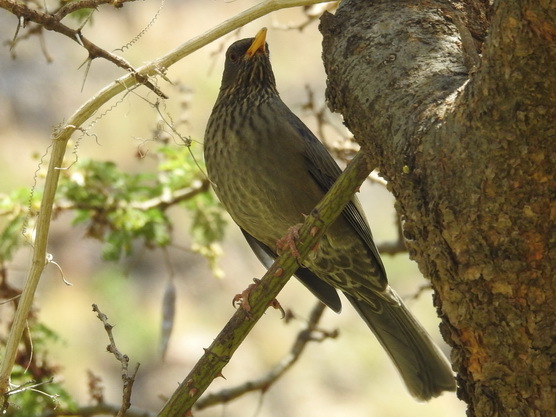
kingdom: Animalia
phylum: Chordata
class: Aves
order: Passeriformes
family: Turdidae
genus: Turdus
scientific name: Turdus menachensis
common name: Yemen thrush
